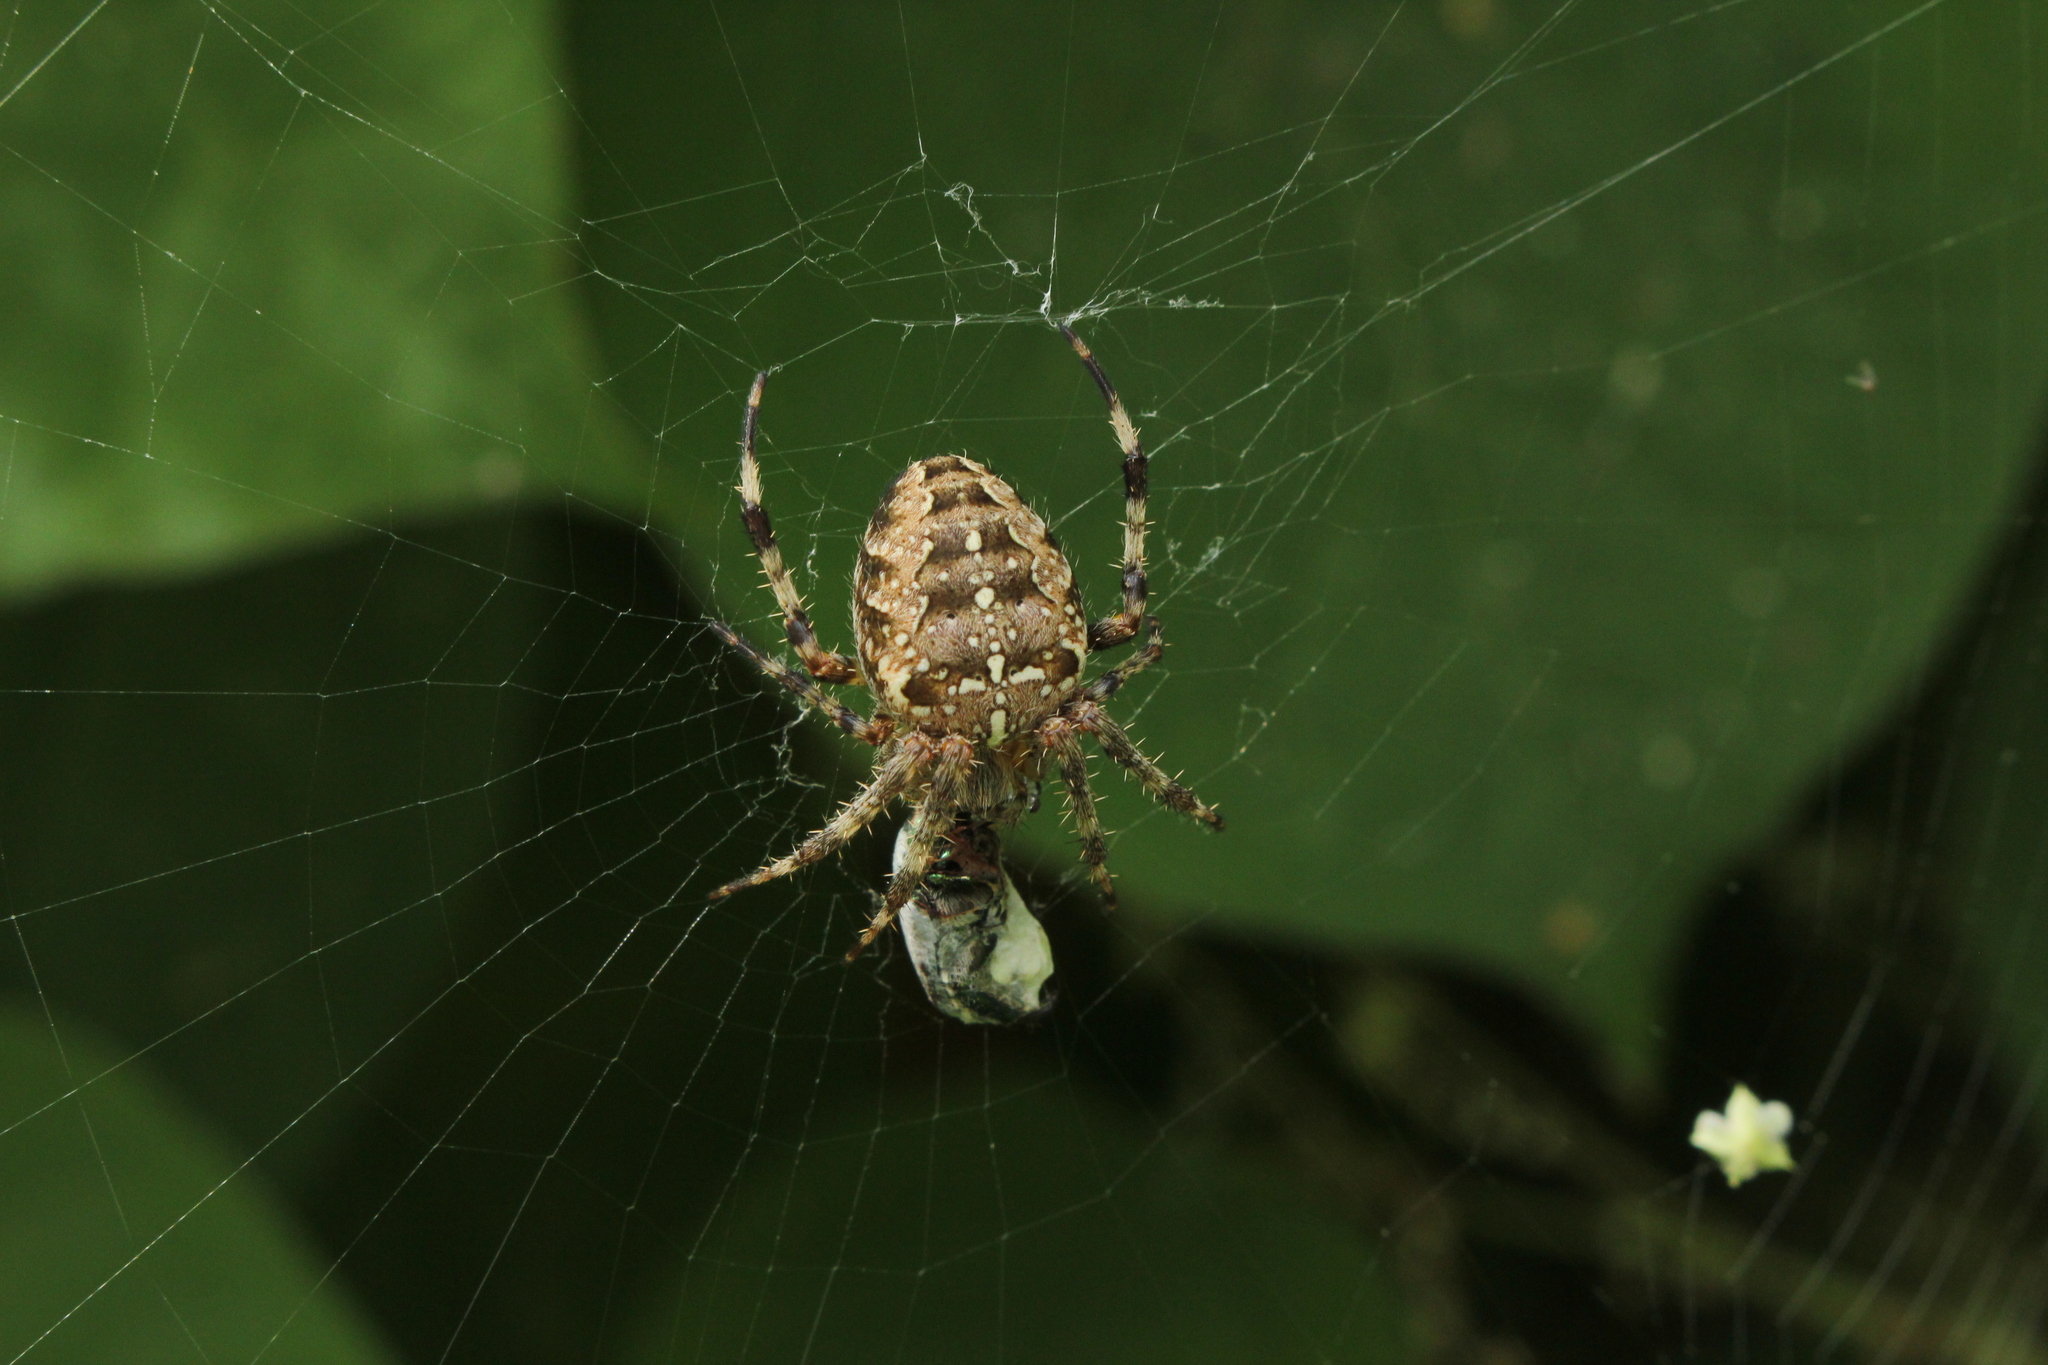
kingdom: Animalia
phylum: Arthropoda
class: Arachnida
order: Araneae
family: Araneidae
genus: Araneus
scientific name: Araneus diadematus
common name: Cross orbweaver
